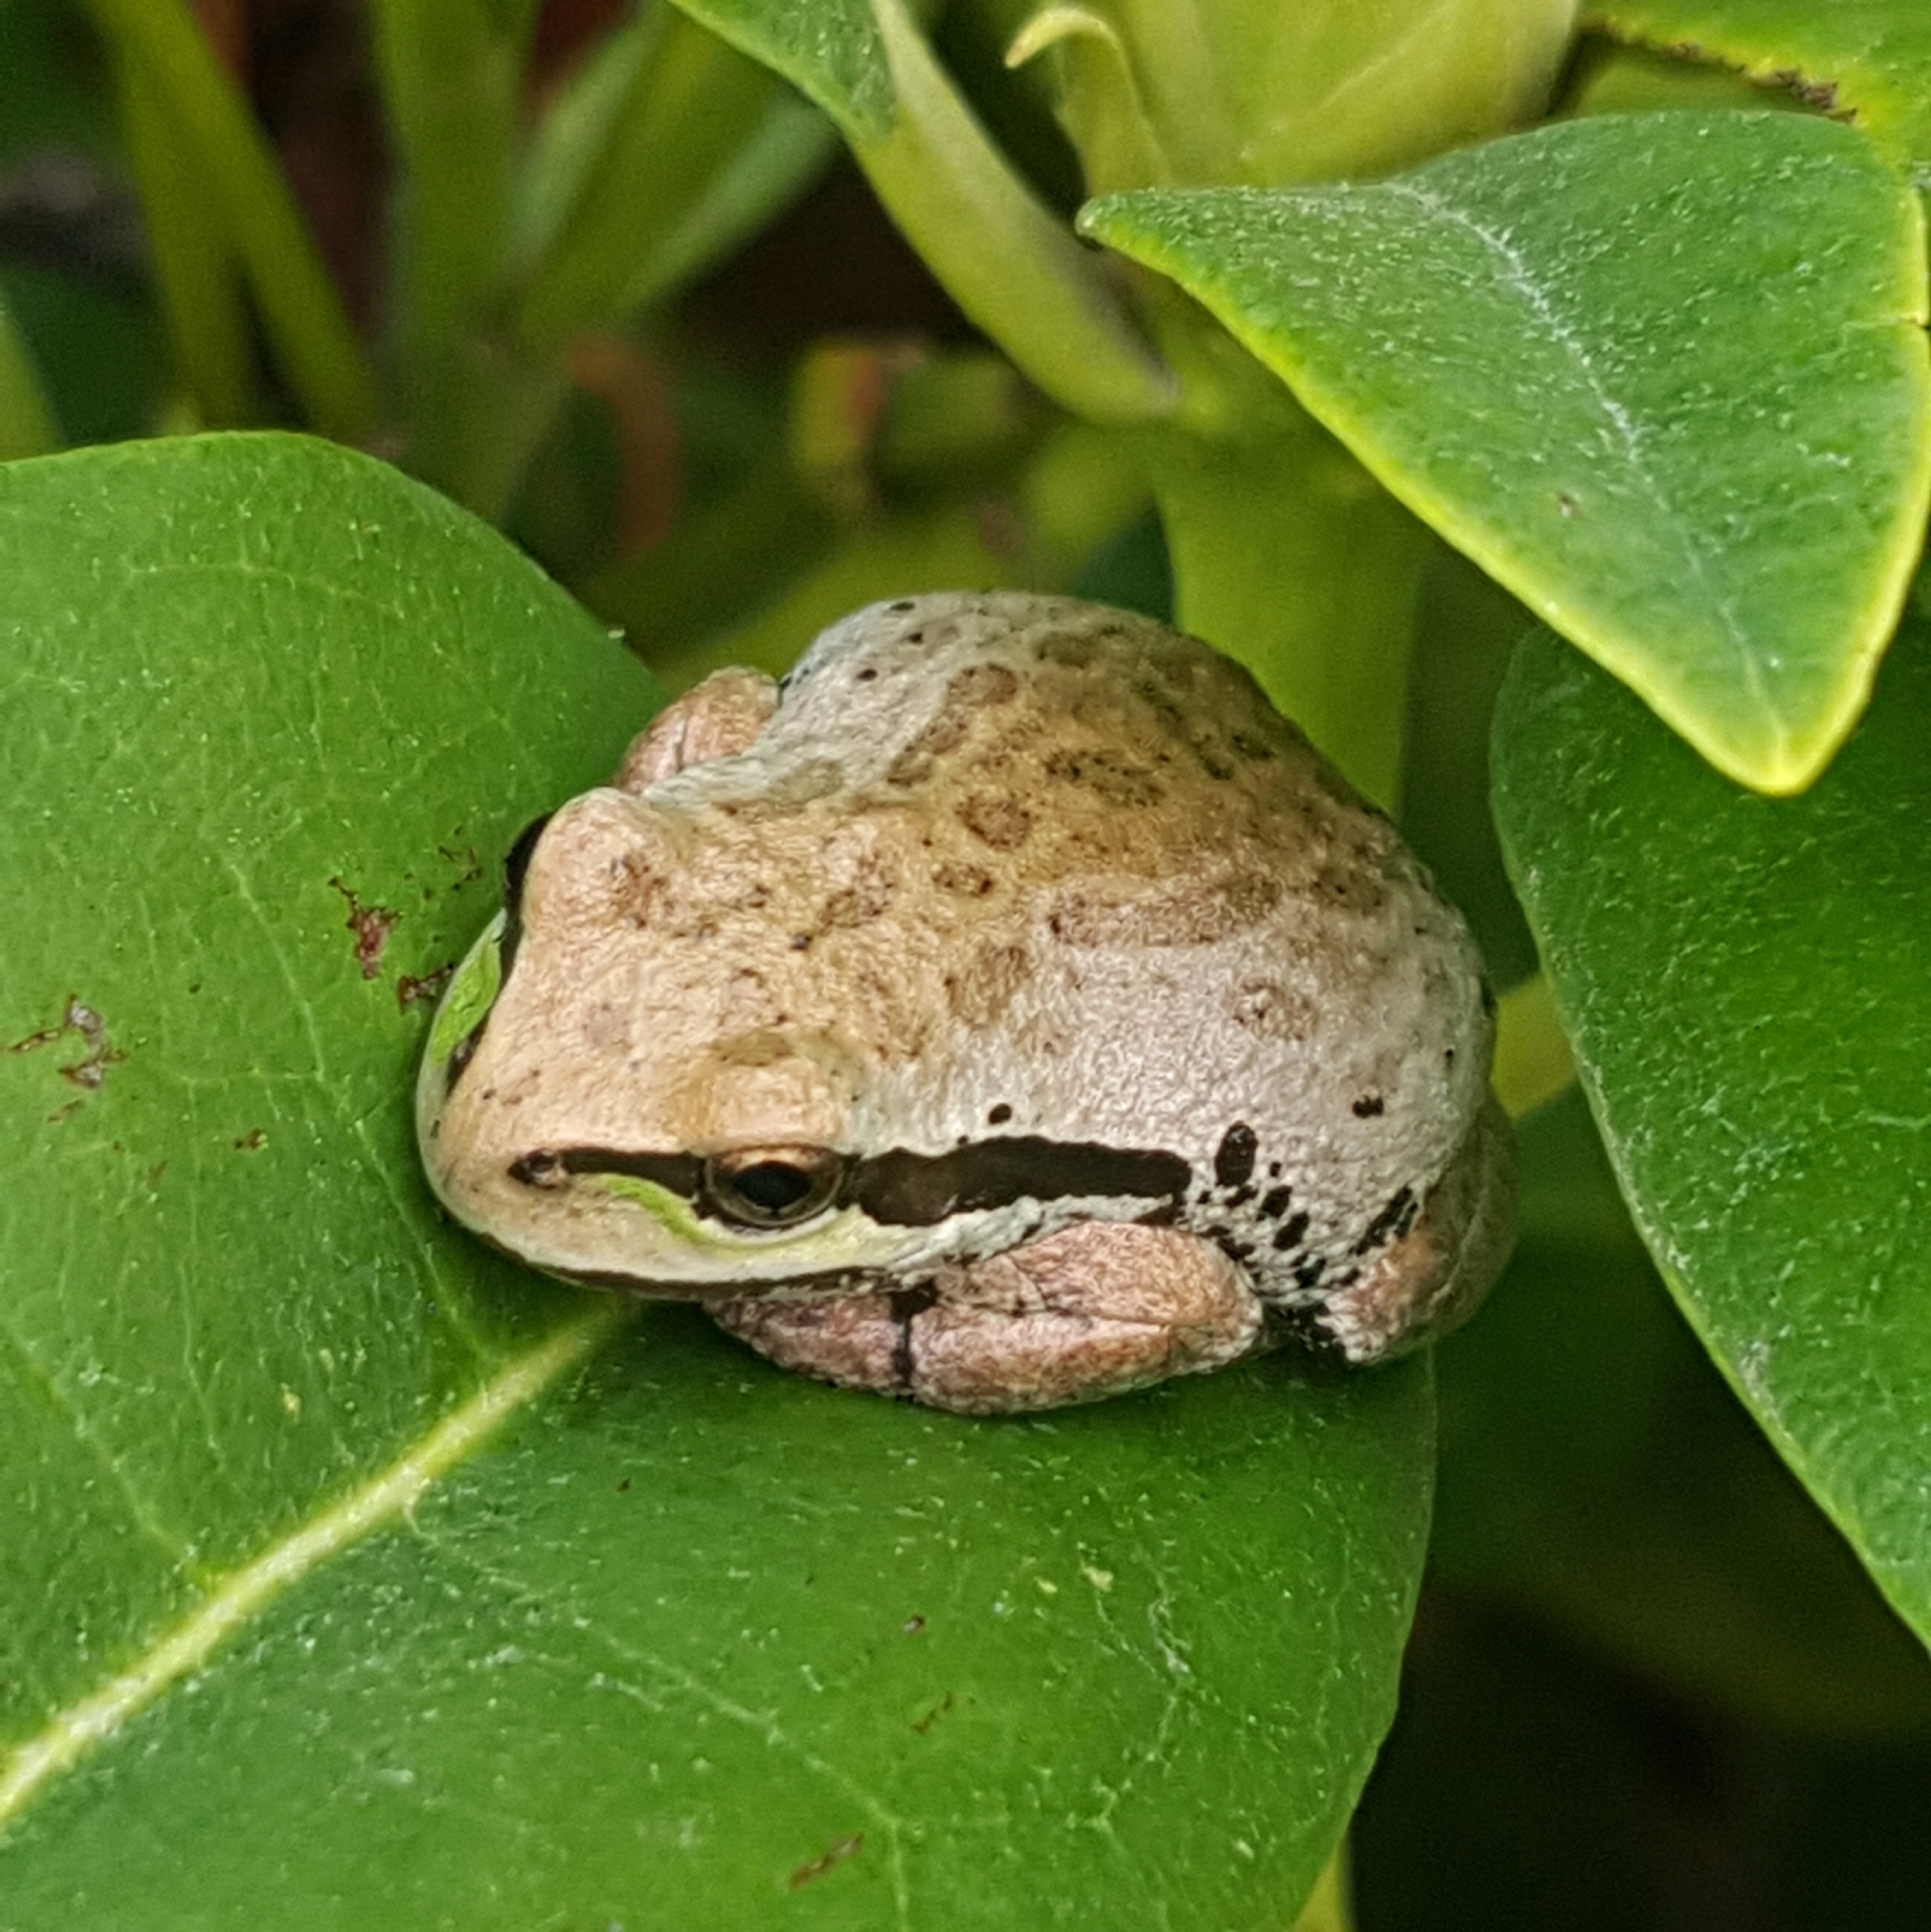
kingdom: Animalia
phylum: Chordata
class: Amphibia
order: Anura
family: Hylidae
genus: Pseudacris
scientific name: Pseudacris regilla
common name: Pacific chorus frog
